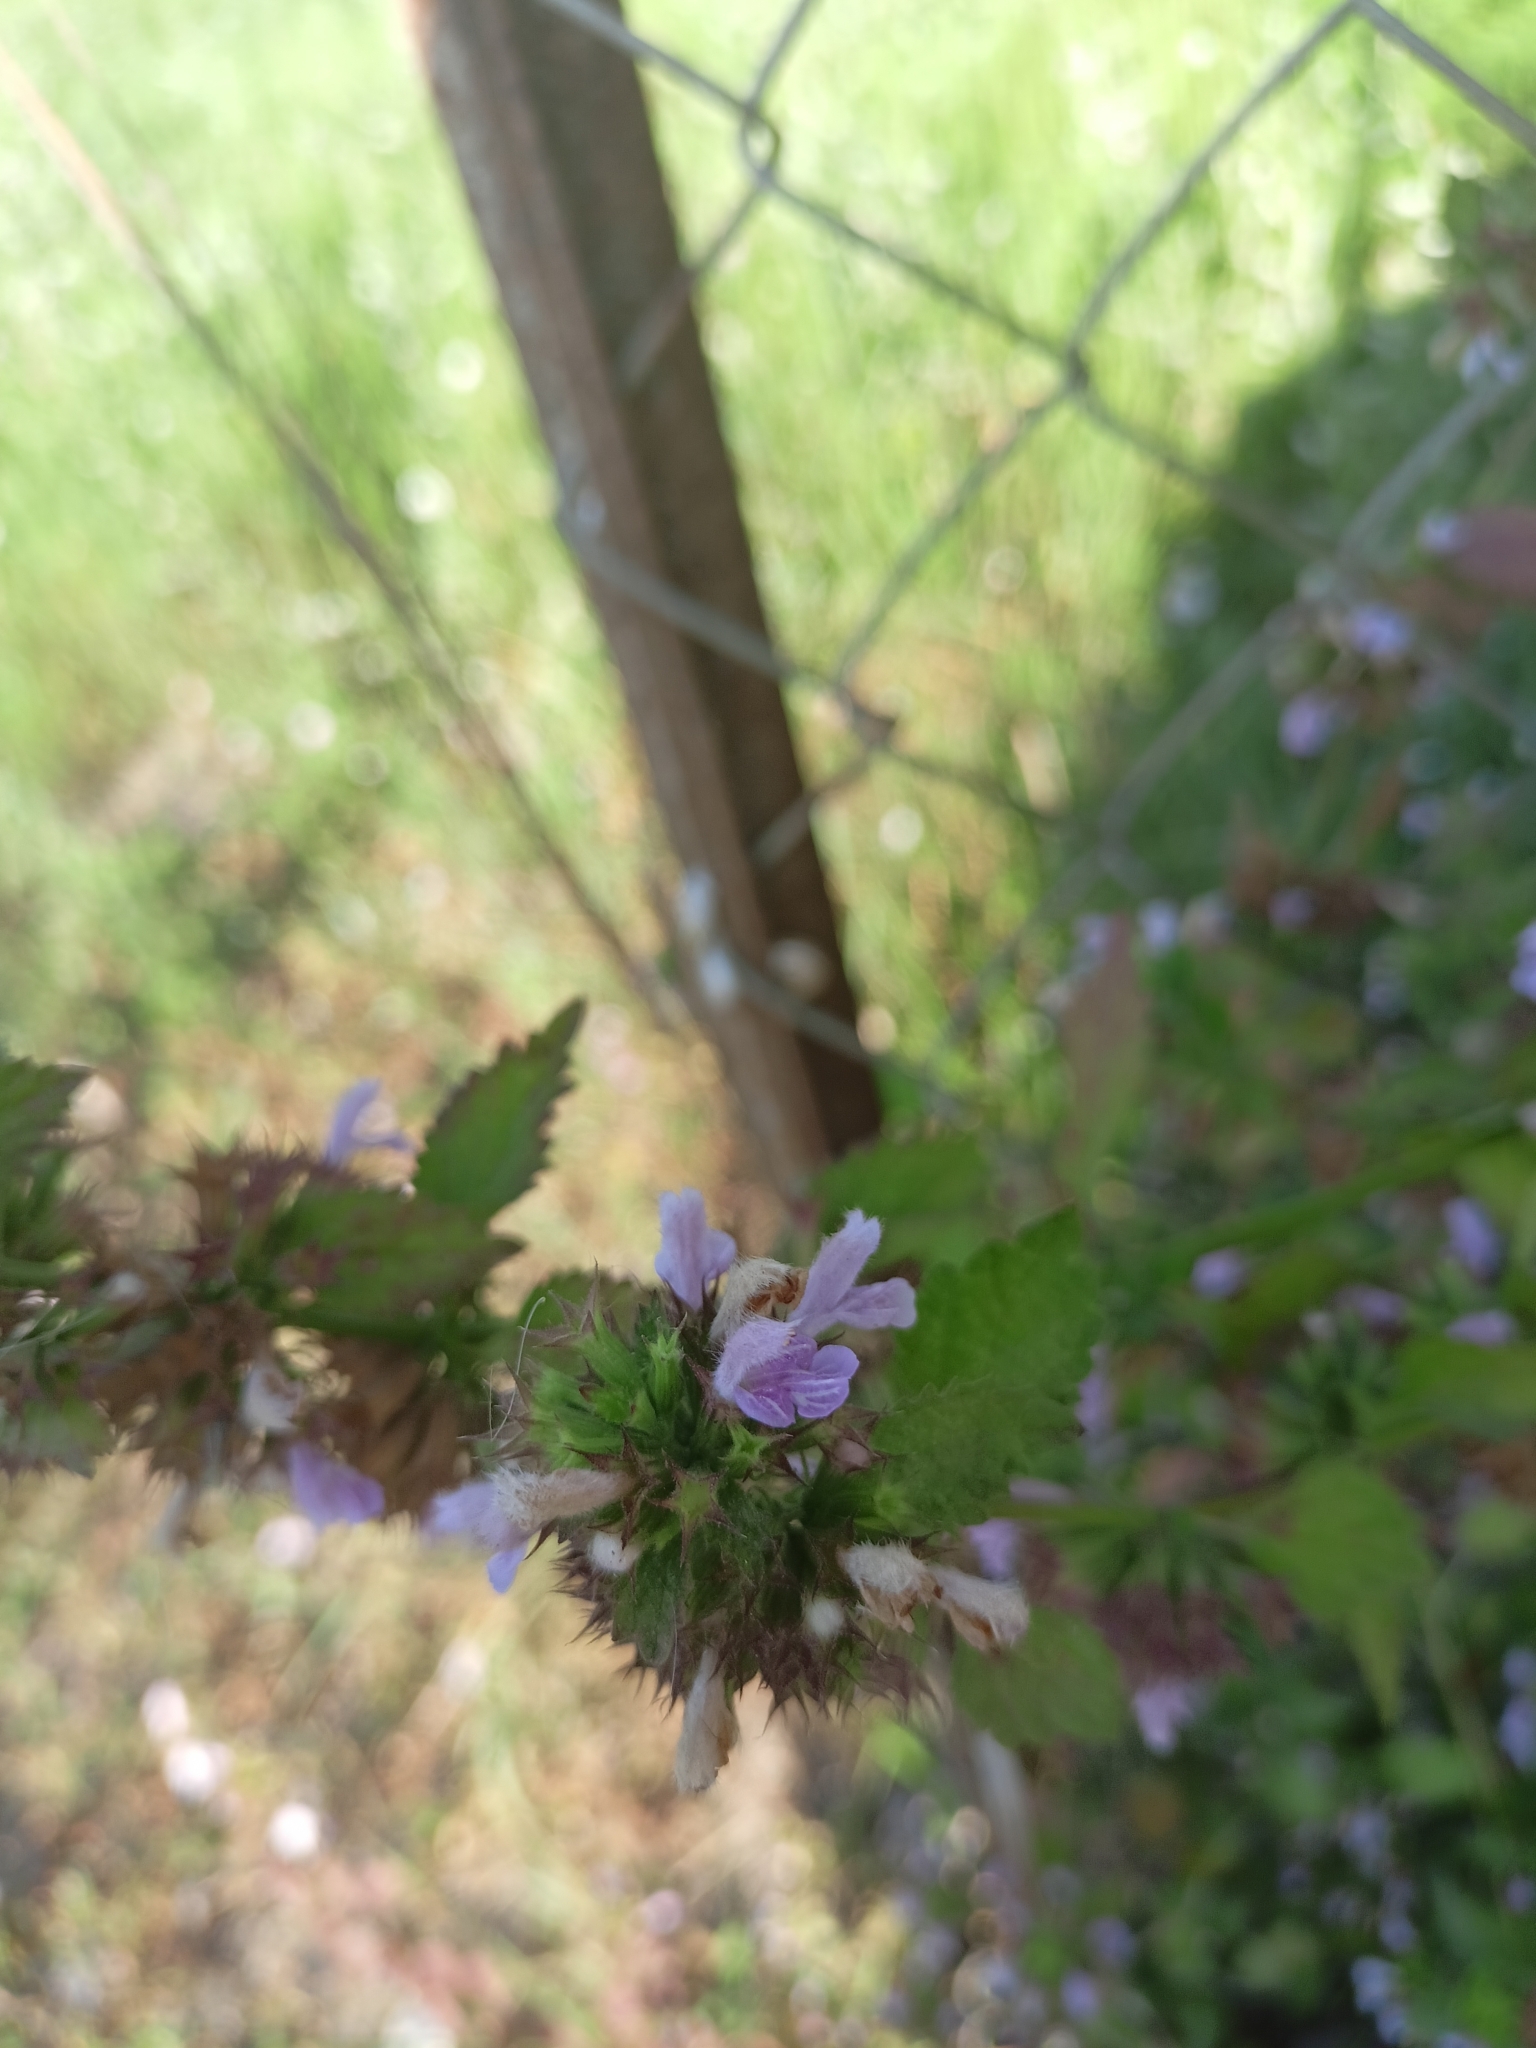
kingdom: Plantae
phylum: Tracheophyta
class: Magnoliopsida
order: Lamiales
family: Lamiaceae
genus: Ballota
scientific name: Ballota nigra
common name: Black horehound
